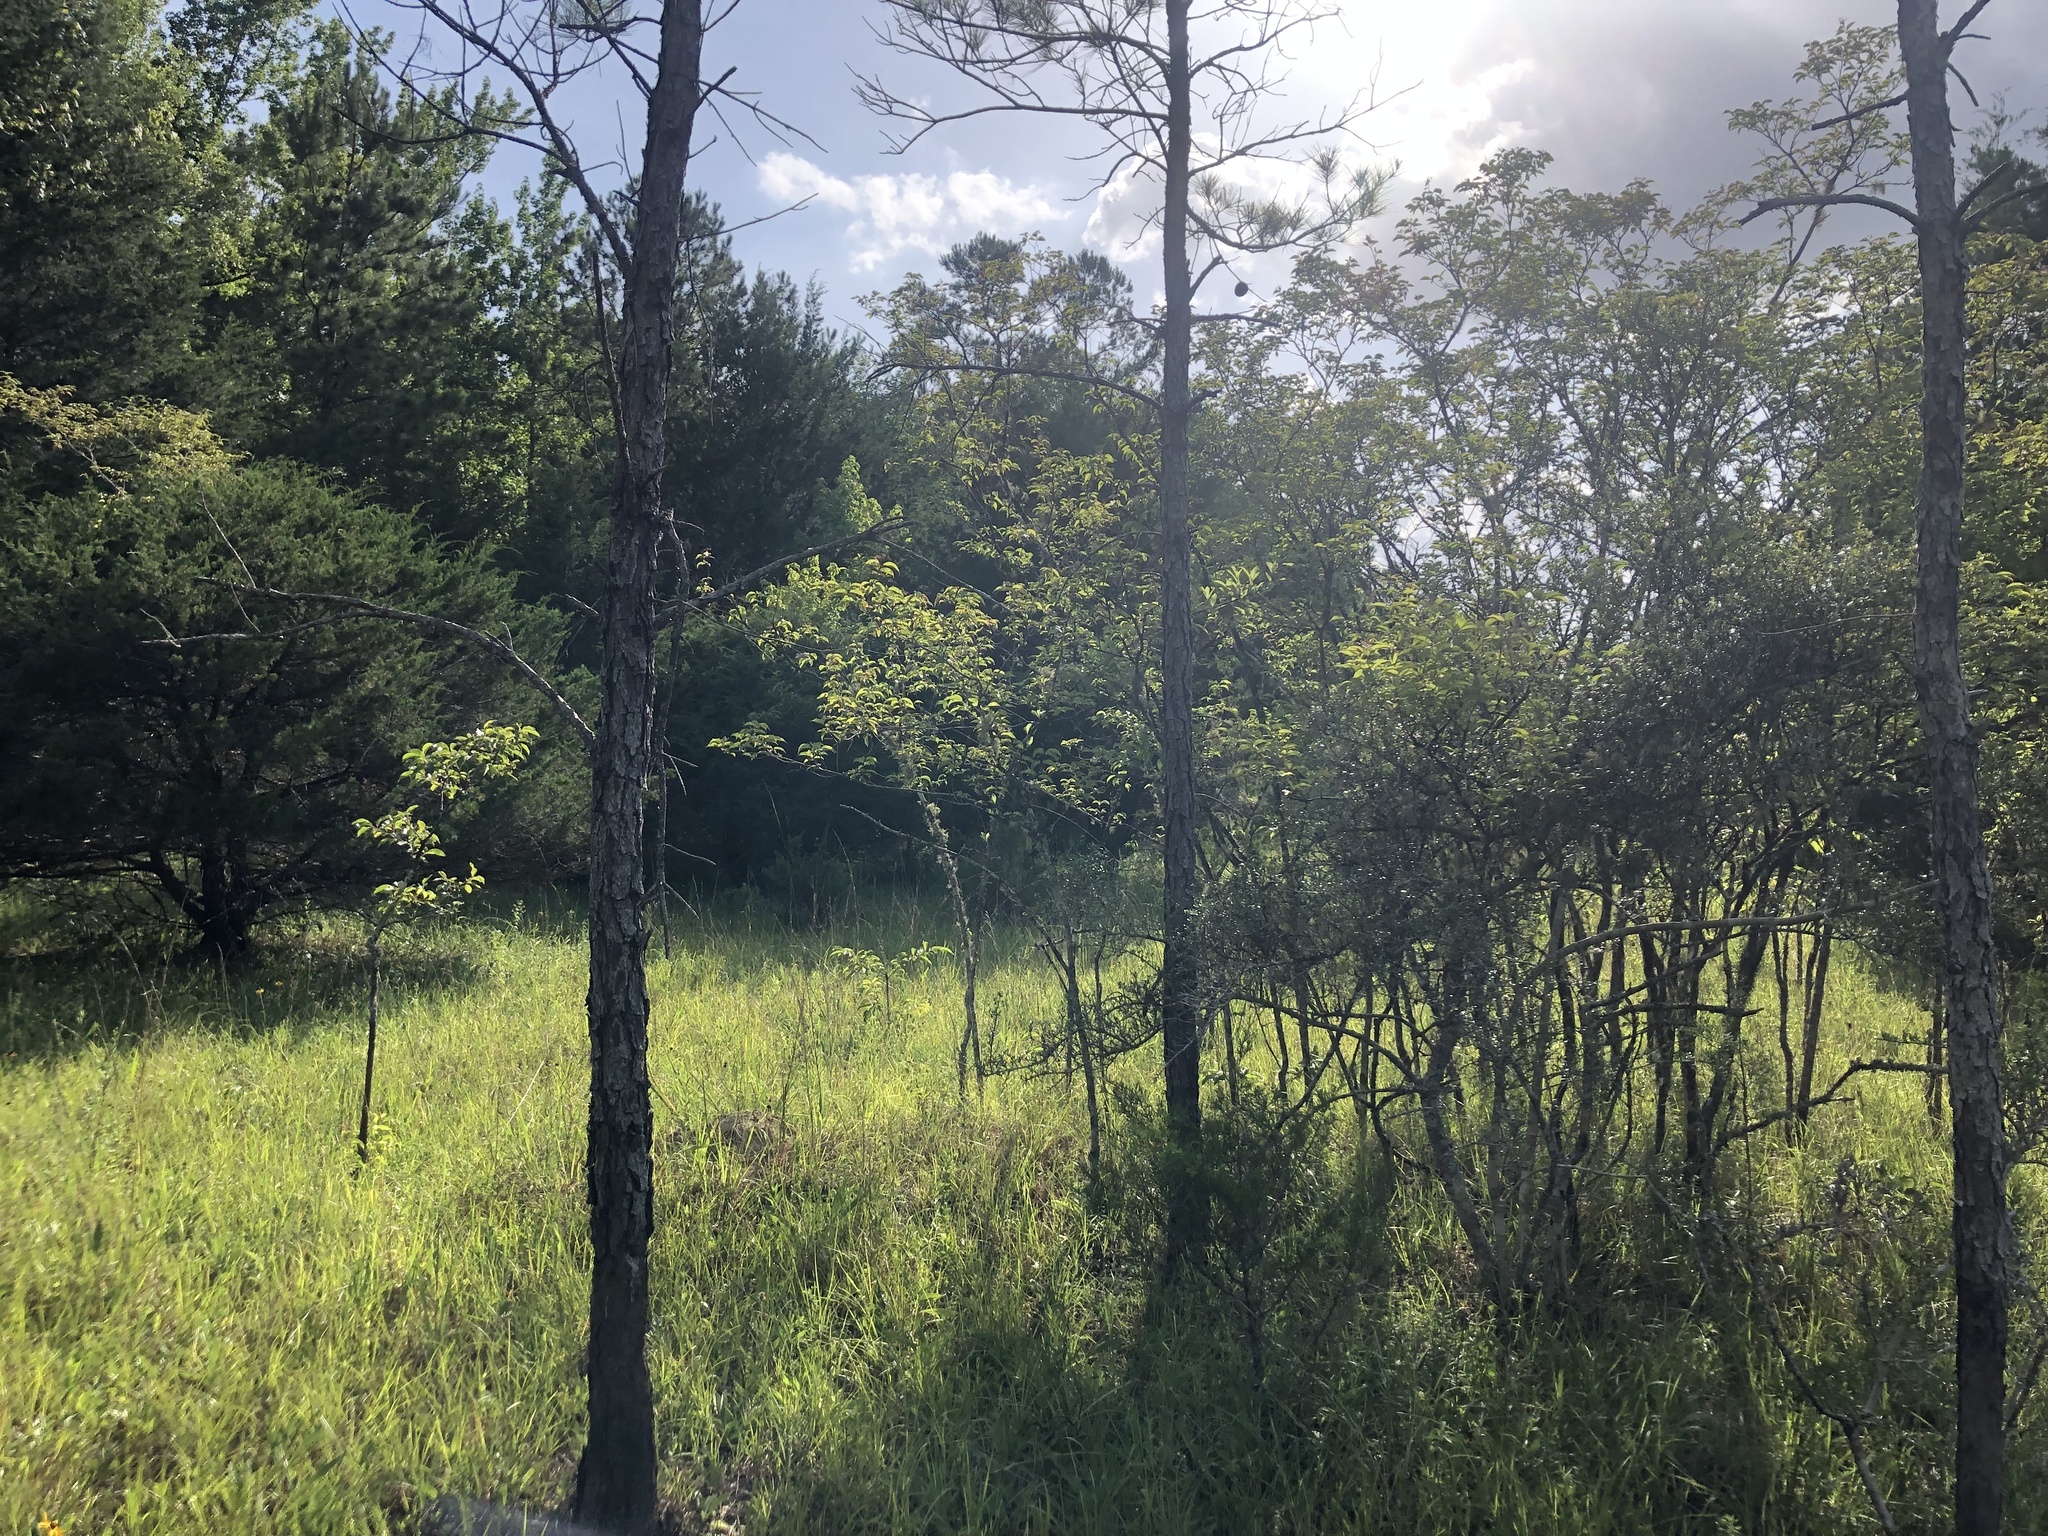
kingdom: Plantae
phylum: Tracheophyta
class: Magnoliopsida
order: Cornales
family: Cornaceae
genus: Cornus
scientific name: Cornus drummondii
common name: Rough-leaf dogwood
